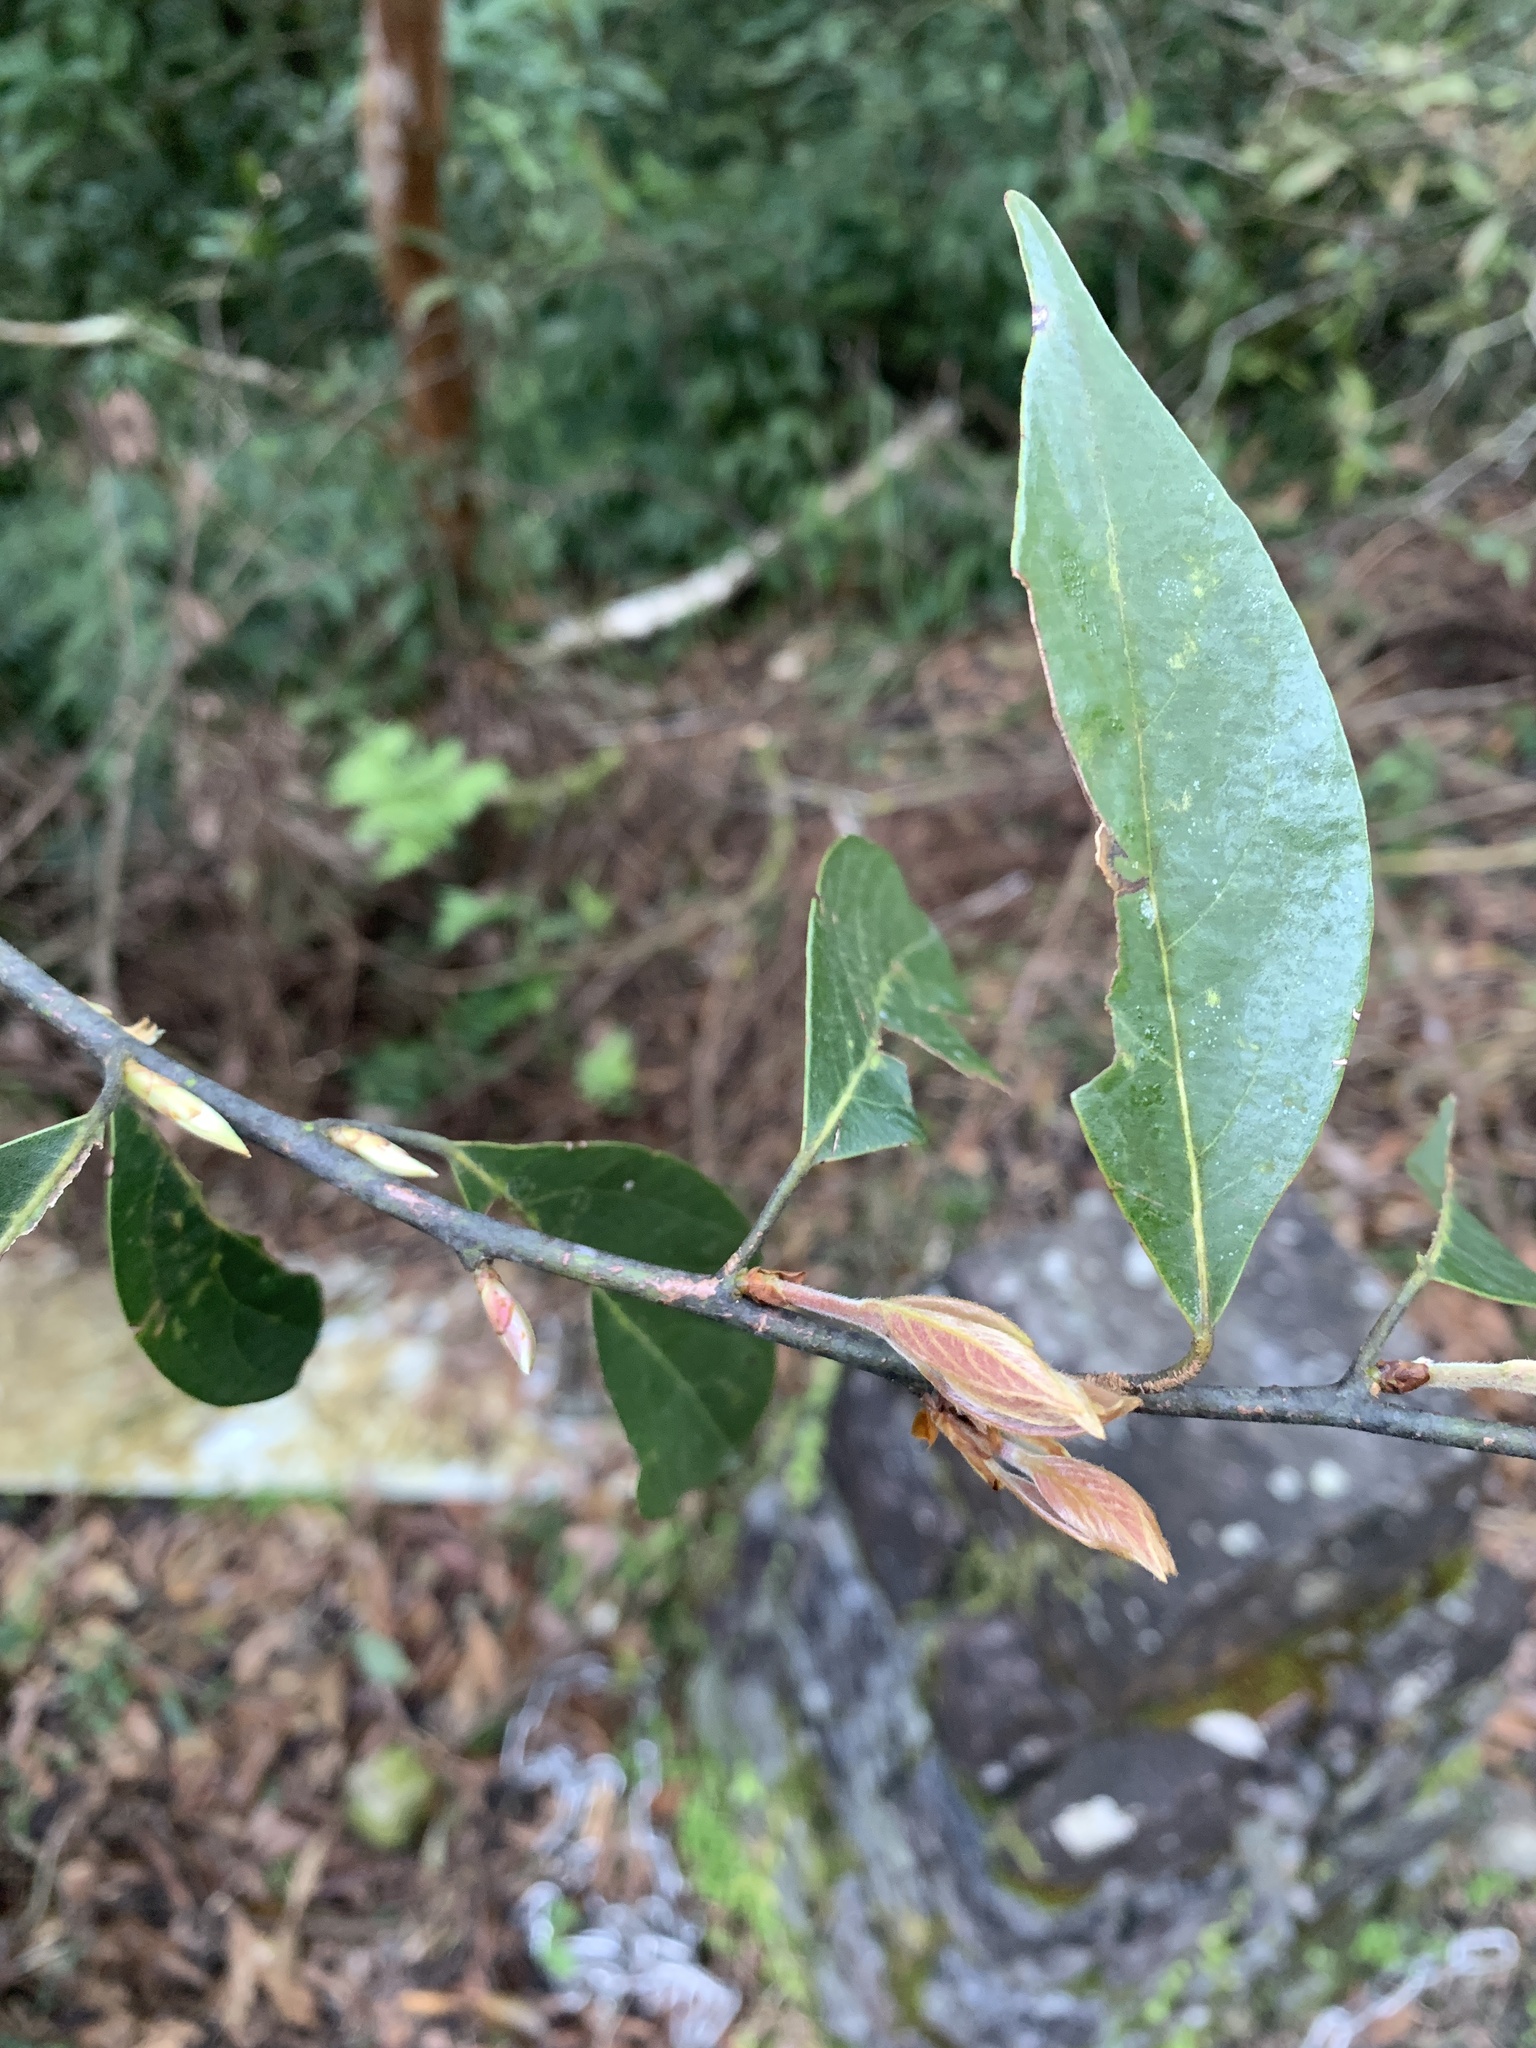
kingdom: Plantae
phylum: Tracheophyta
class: Magnoliopsida
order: Laurales
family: Lauraceae
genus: Lindera
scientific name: Lindera communis
